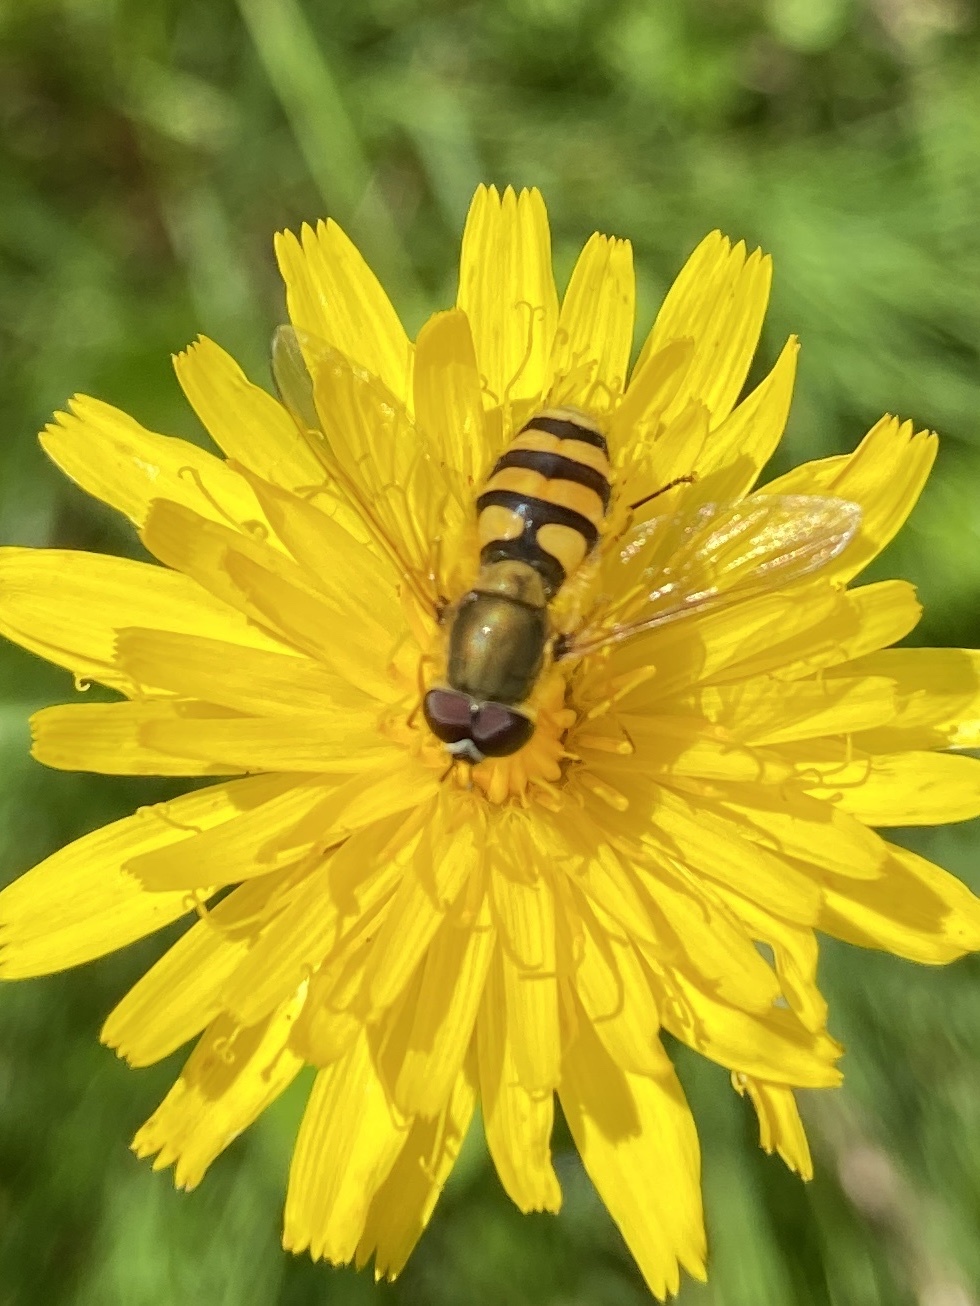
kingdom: Animalia
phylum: Arthropoda
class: Insecta
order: Diptera
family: Syrphidae
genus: Syrphus
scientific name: Syrphus ribesii
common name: Common flower fly
